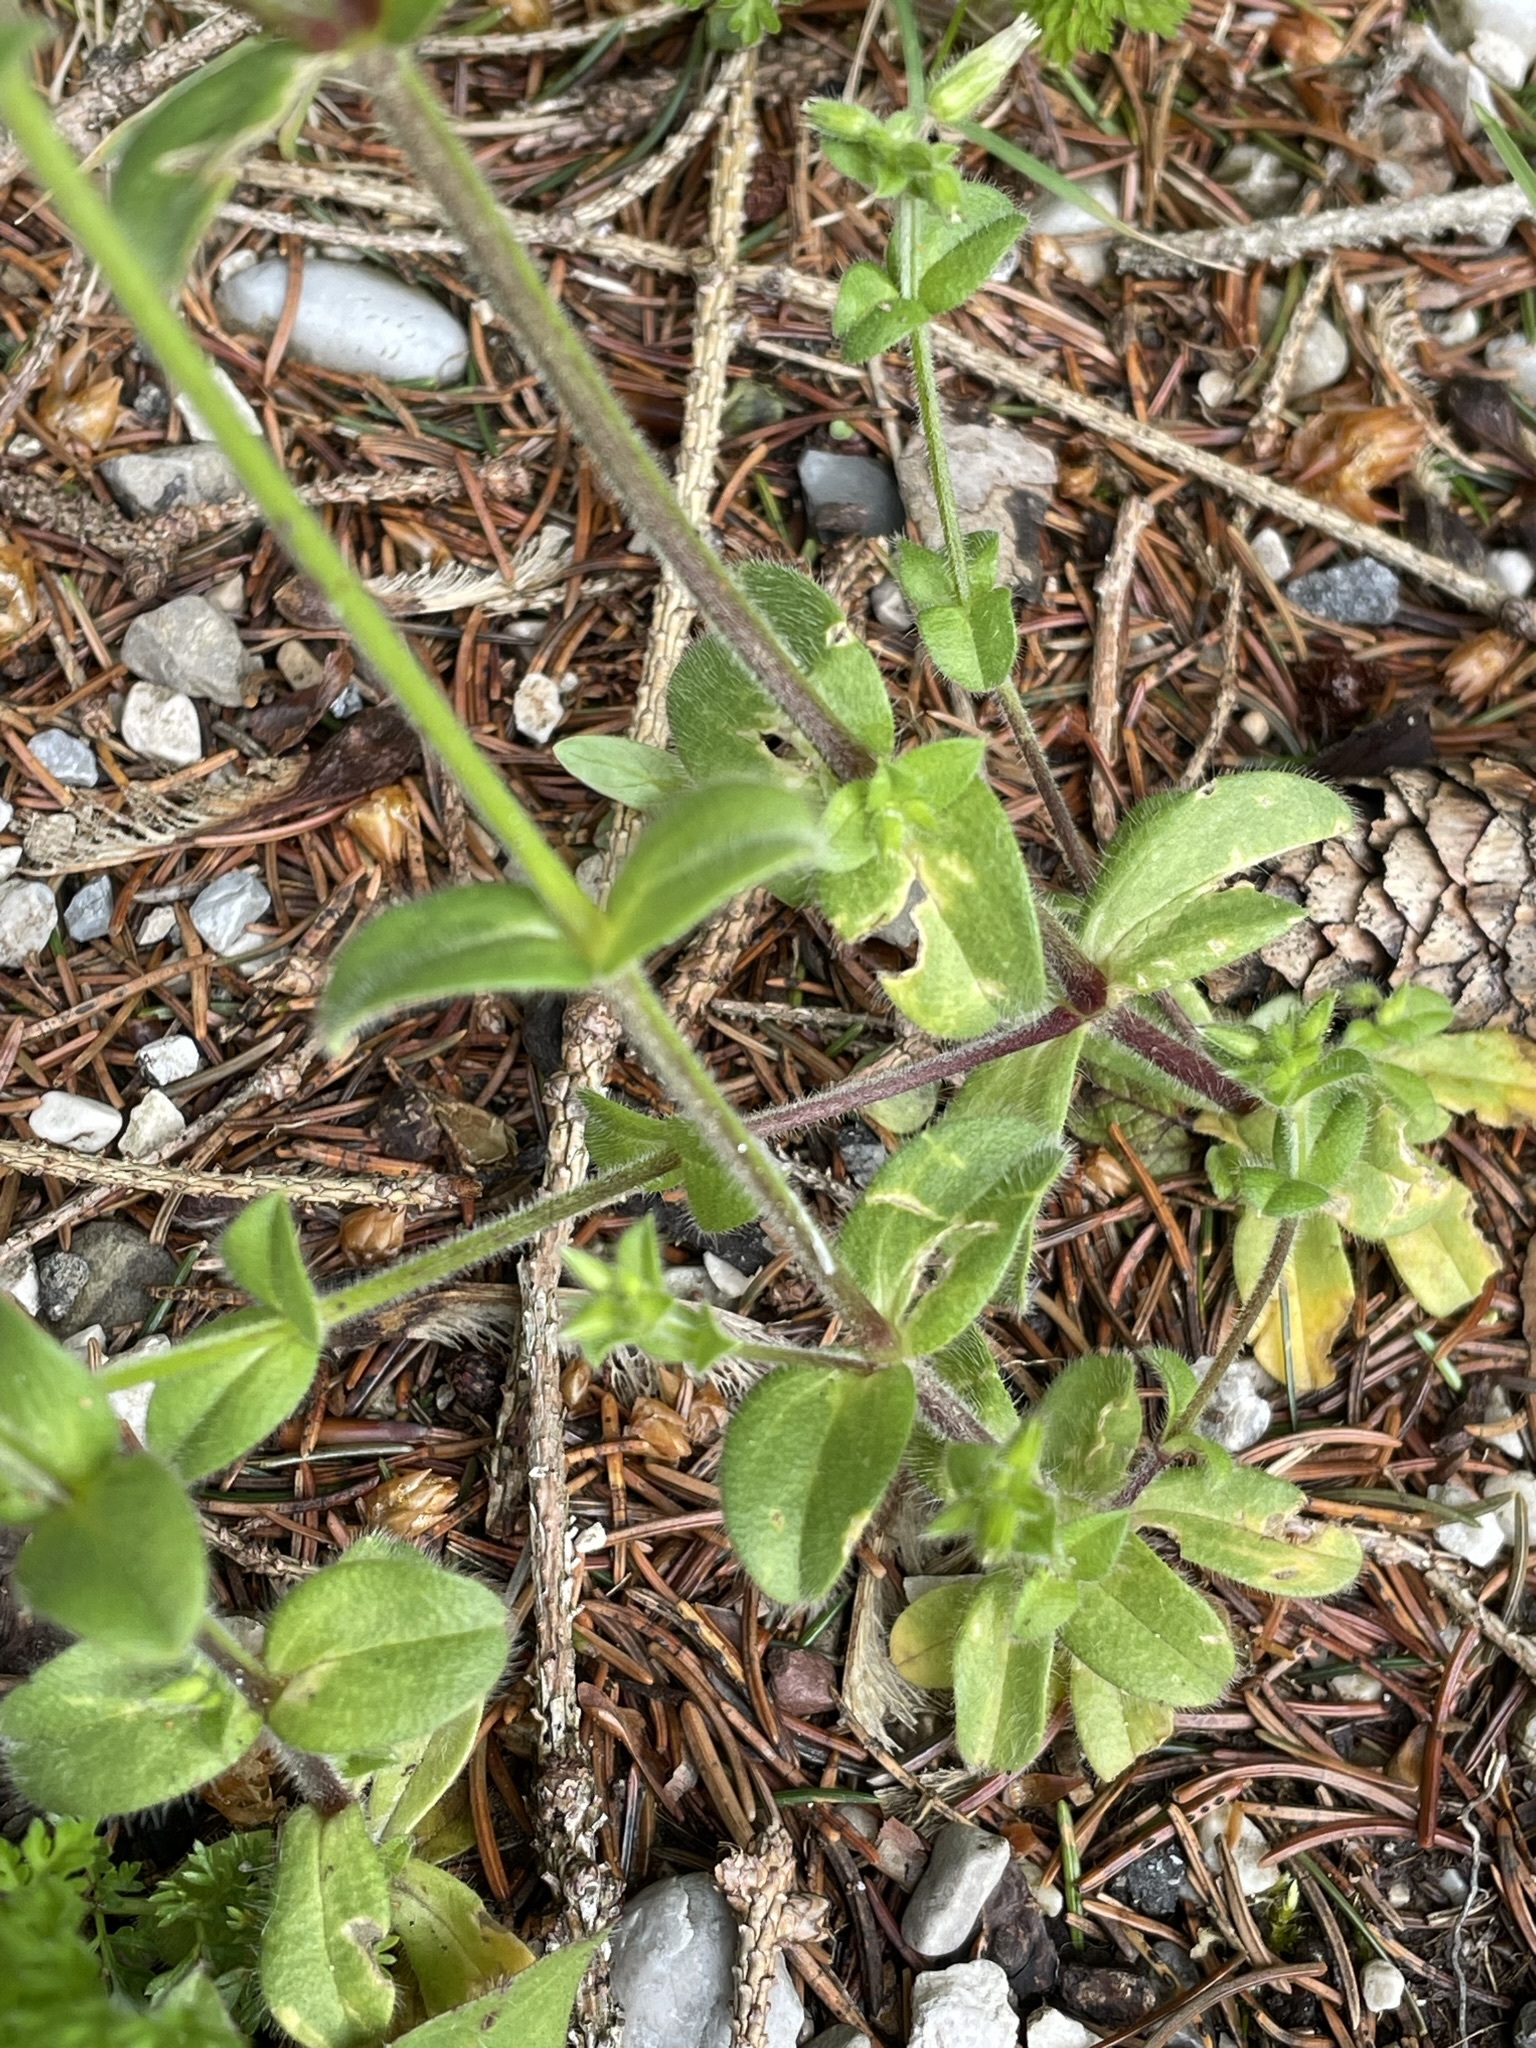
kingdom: Plantae
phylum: Tracheophyta
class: Magnoliopsida
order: Caryophyllales
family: Caryophyllaceae
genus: Cerastium
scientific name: Cerastium glomeratum
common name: Sticky chickweed
